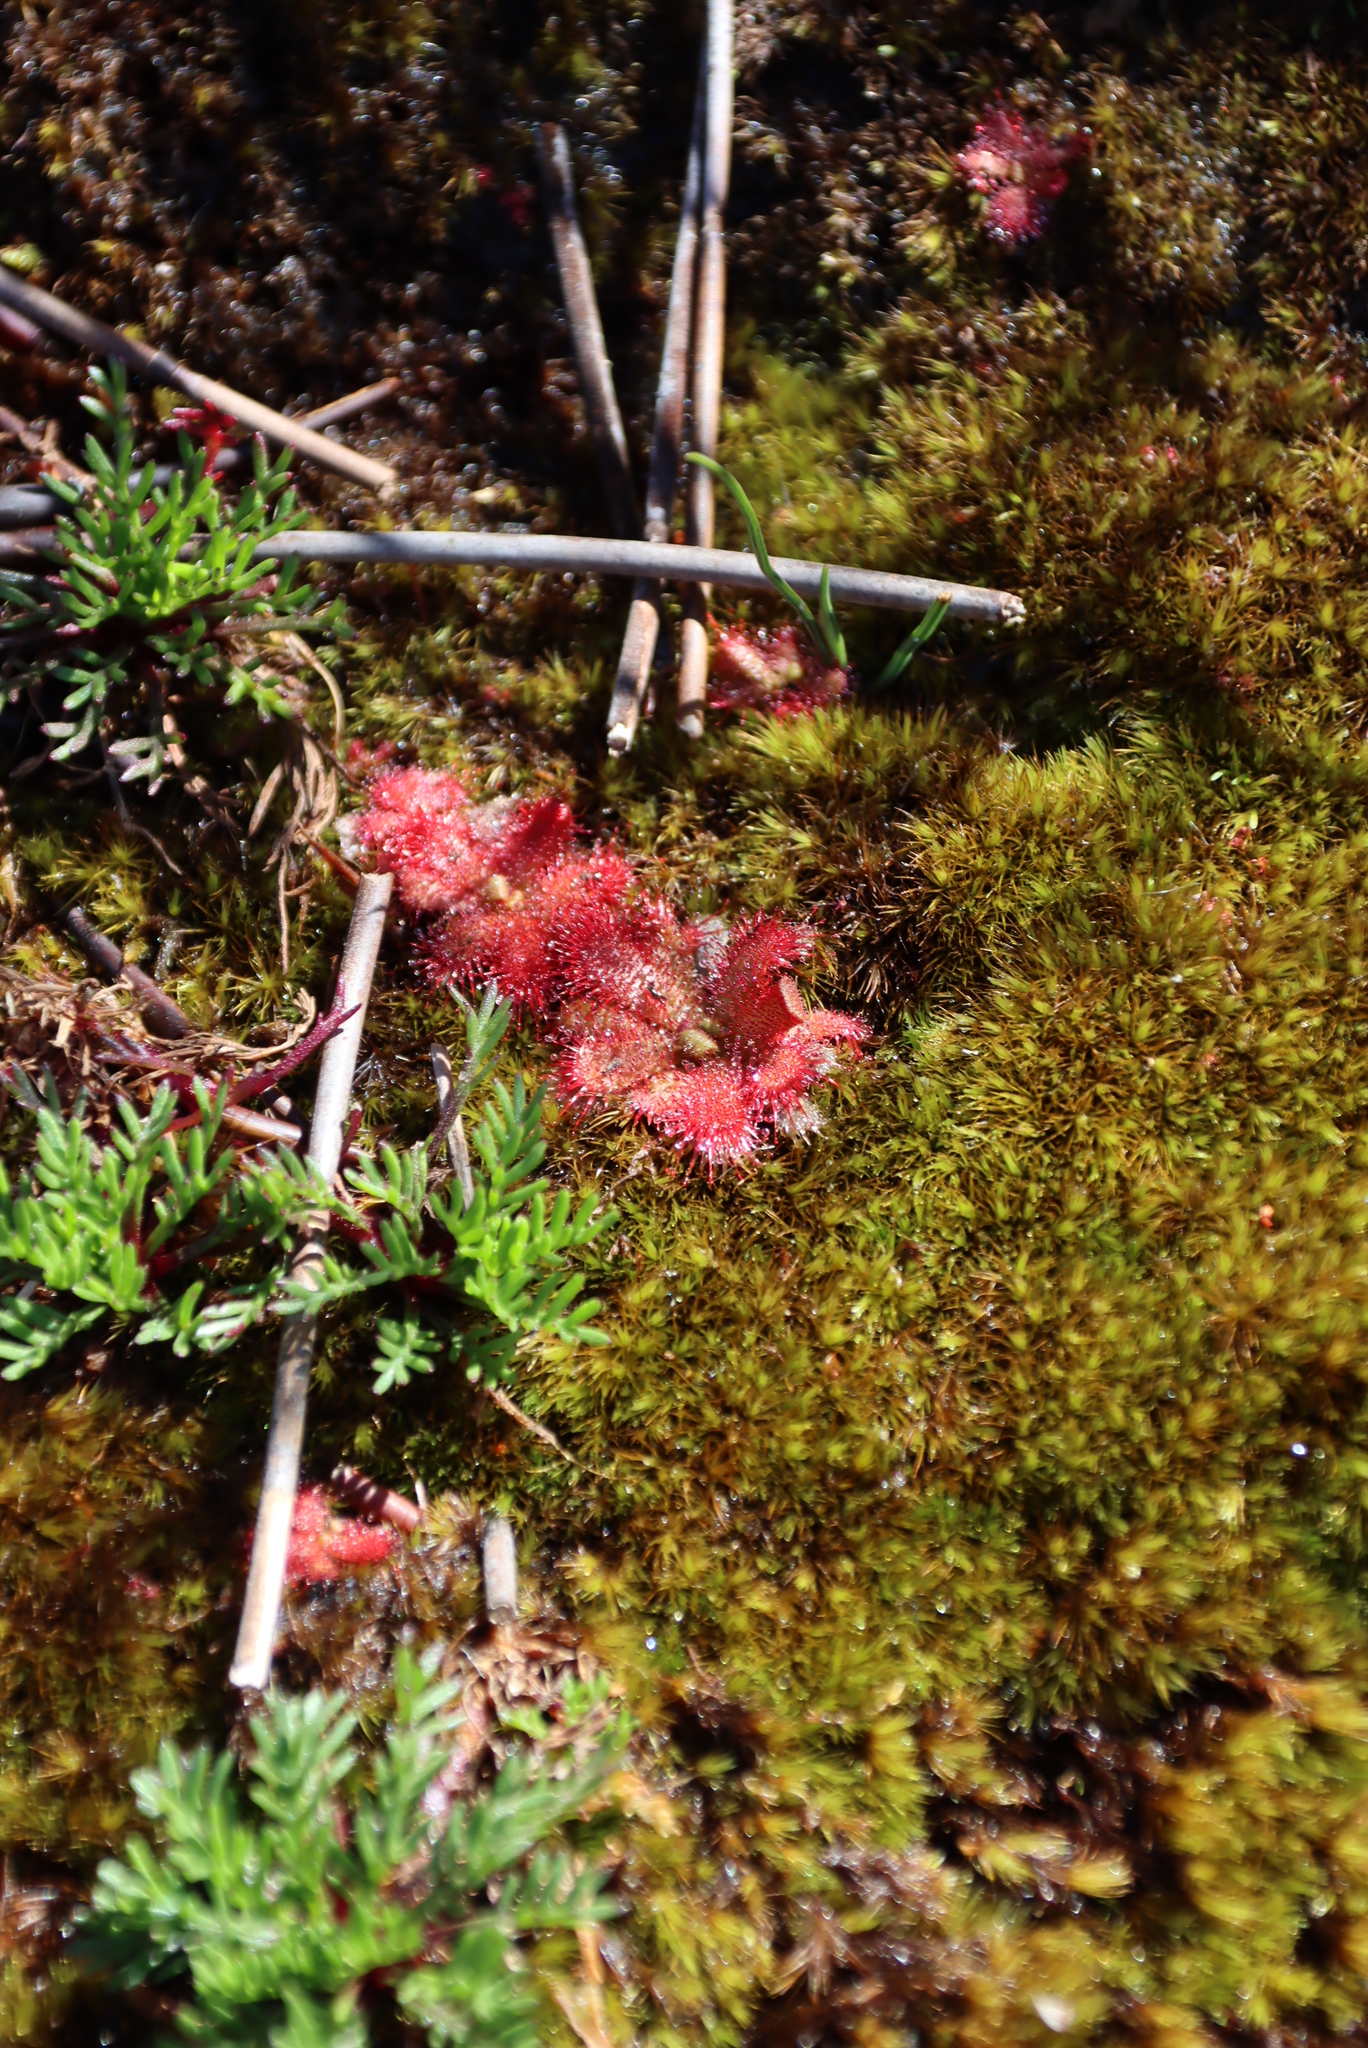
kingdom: Plantae
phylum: Tracheophyta
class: Magnoliopsida
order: Caryophyllales
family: Droseraceae
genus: Drosera
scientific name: Drosera trinervia
